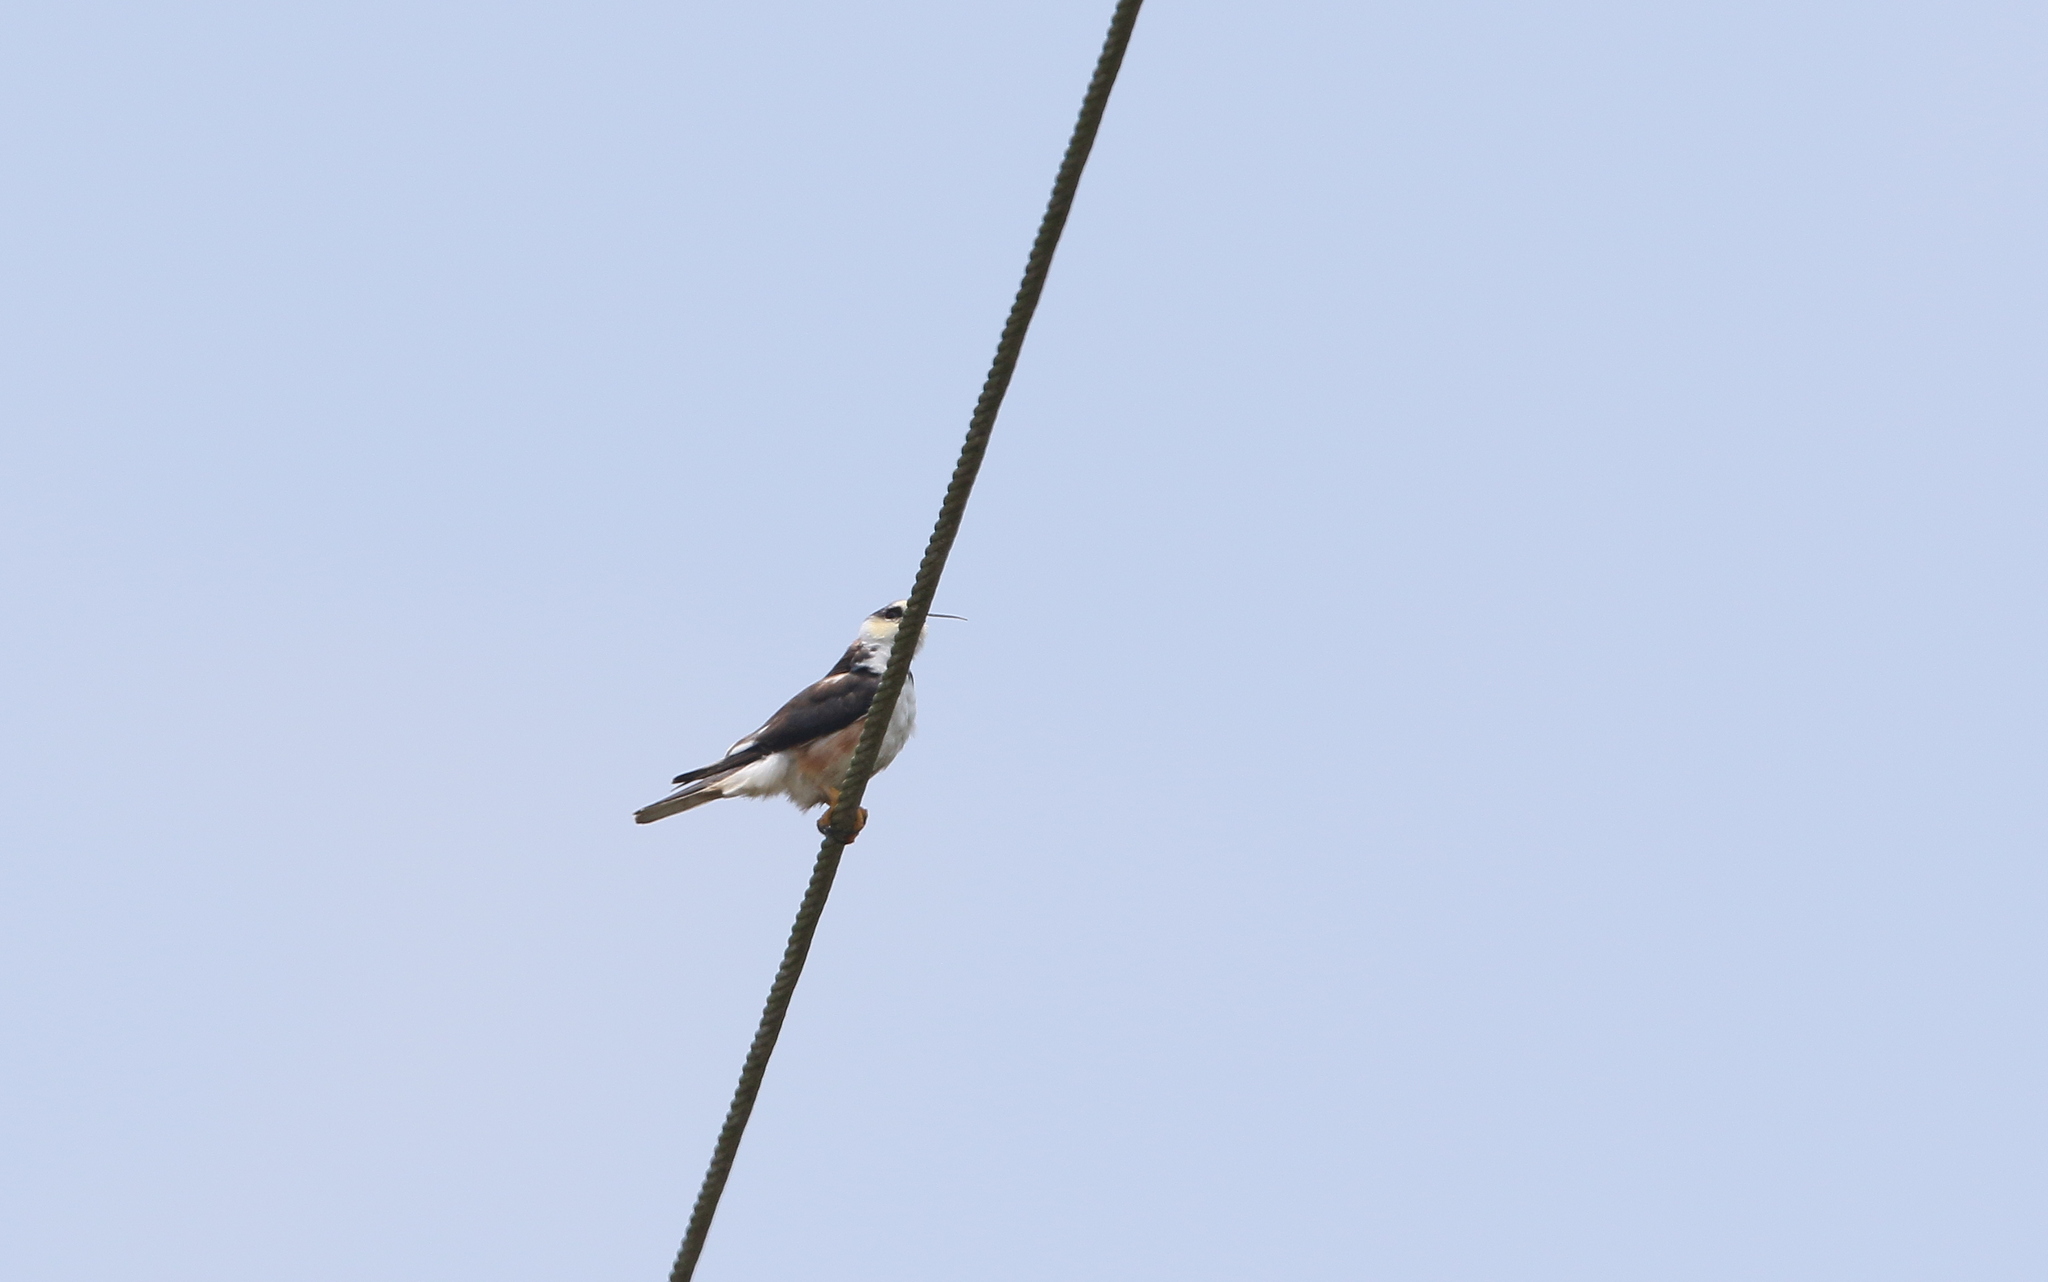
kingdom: Animalia
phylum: Chordata
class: Aves
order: Accipitriformes
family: Accipitridae
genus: Gampsonyx
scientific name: Gampsonyx swainsonii
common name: Pearl kite
